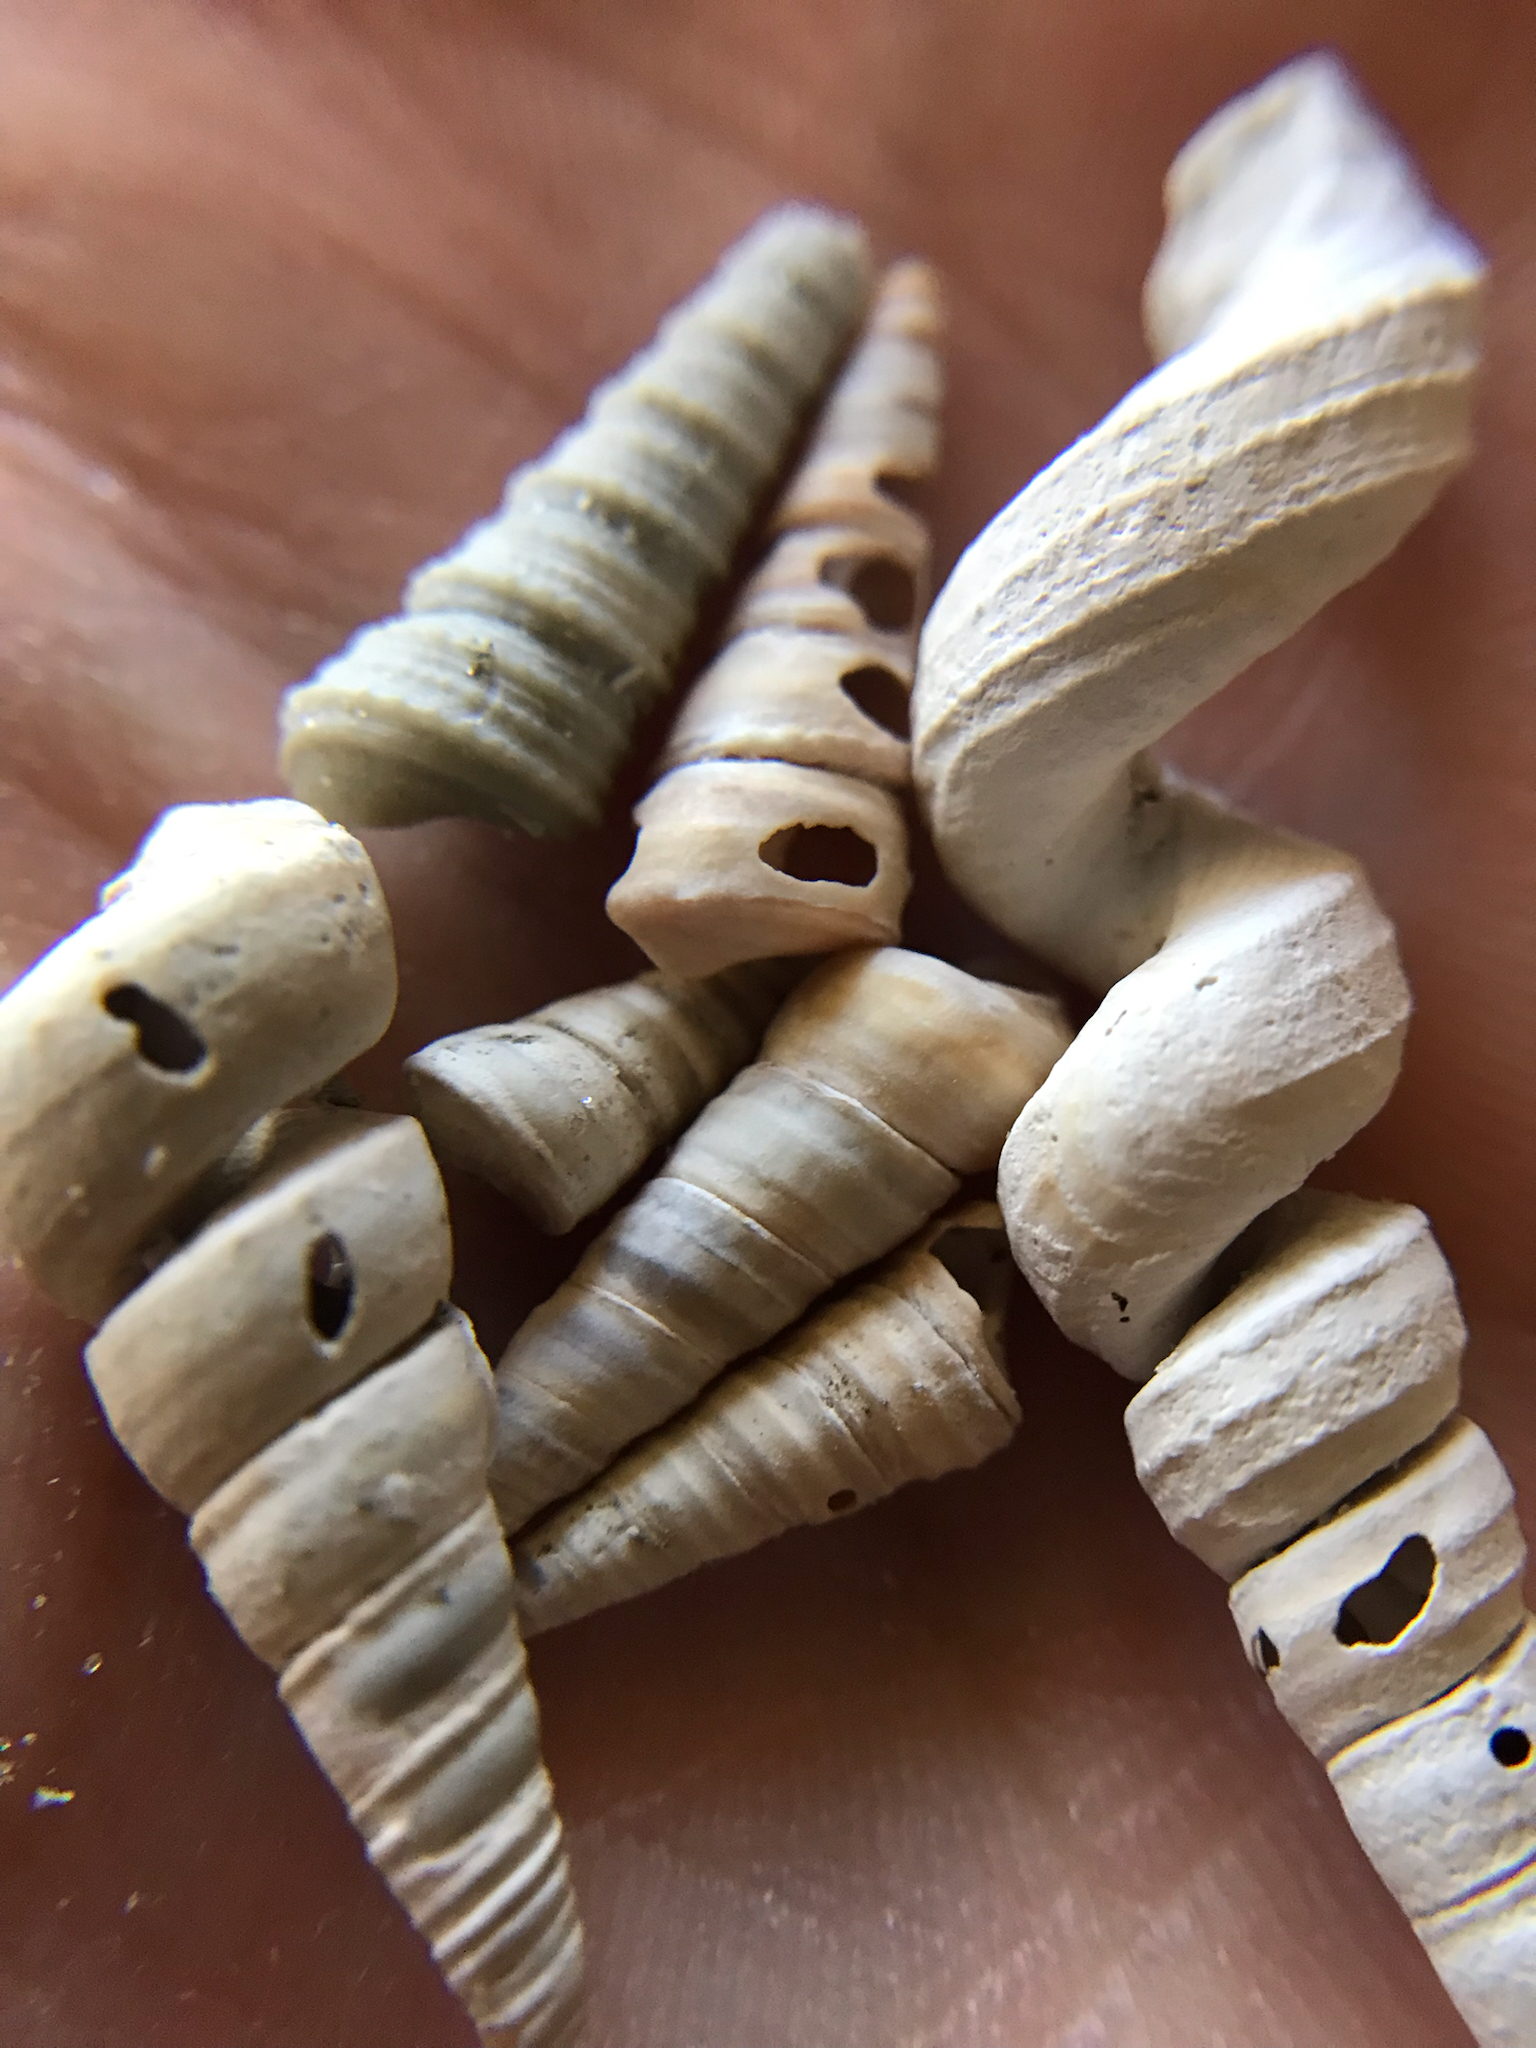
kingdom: Animalia
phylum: Mollusca
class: Gastropoda
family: Turritellidae
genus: Vermicularia
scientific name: Vermicularia fargoi
